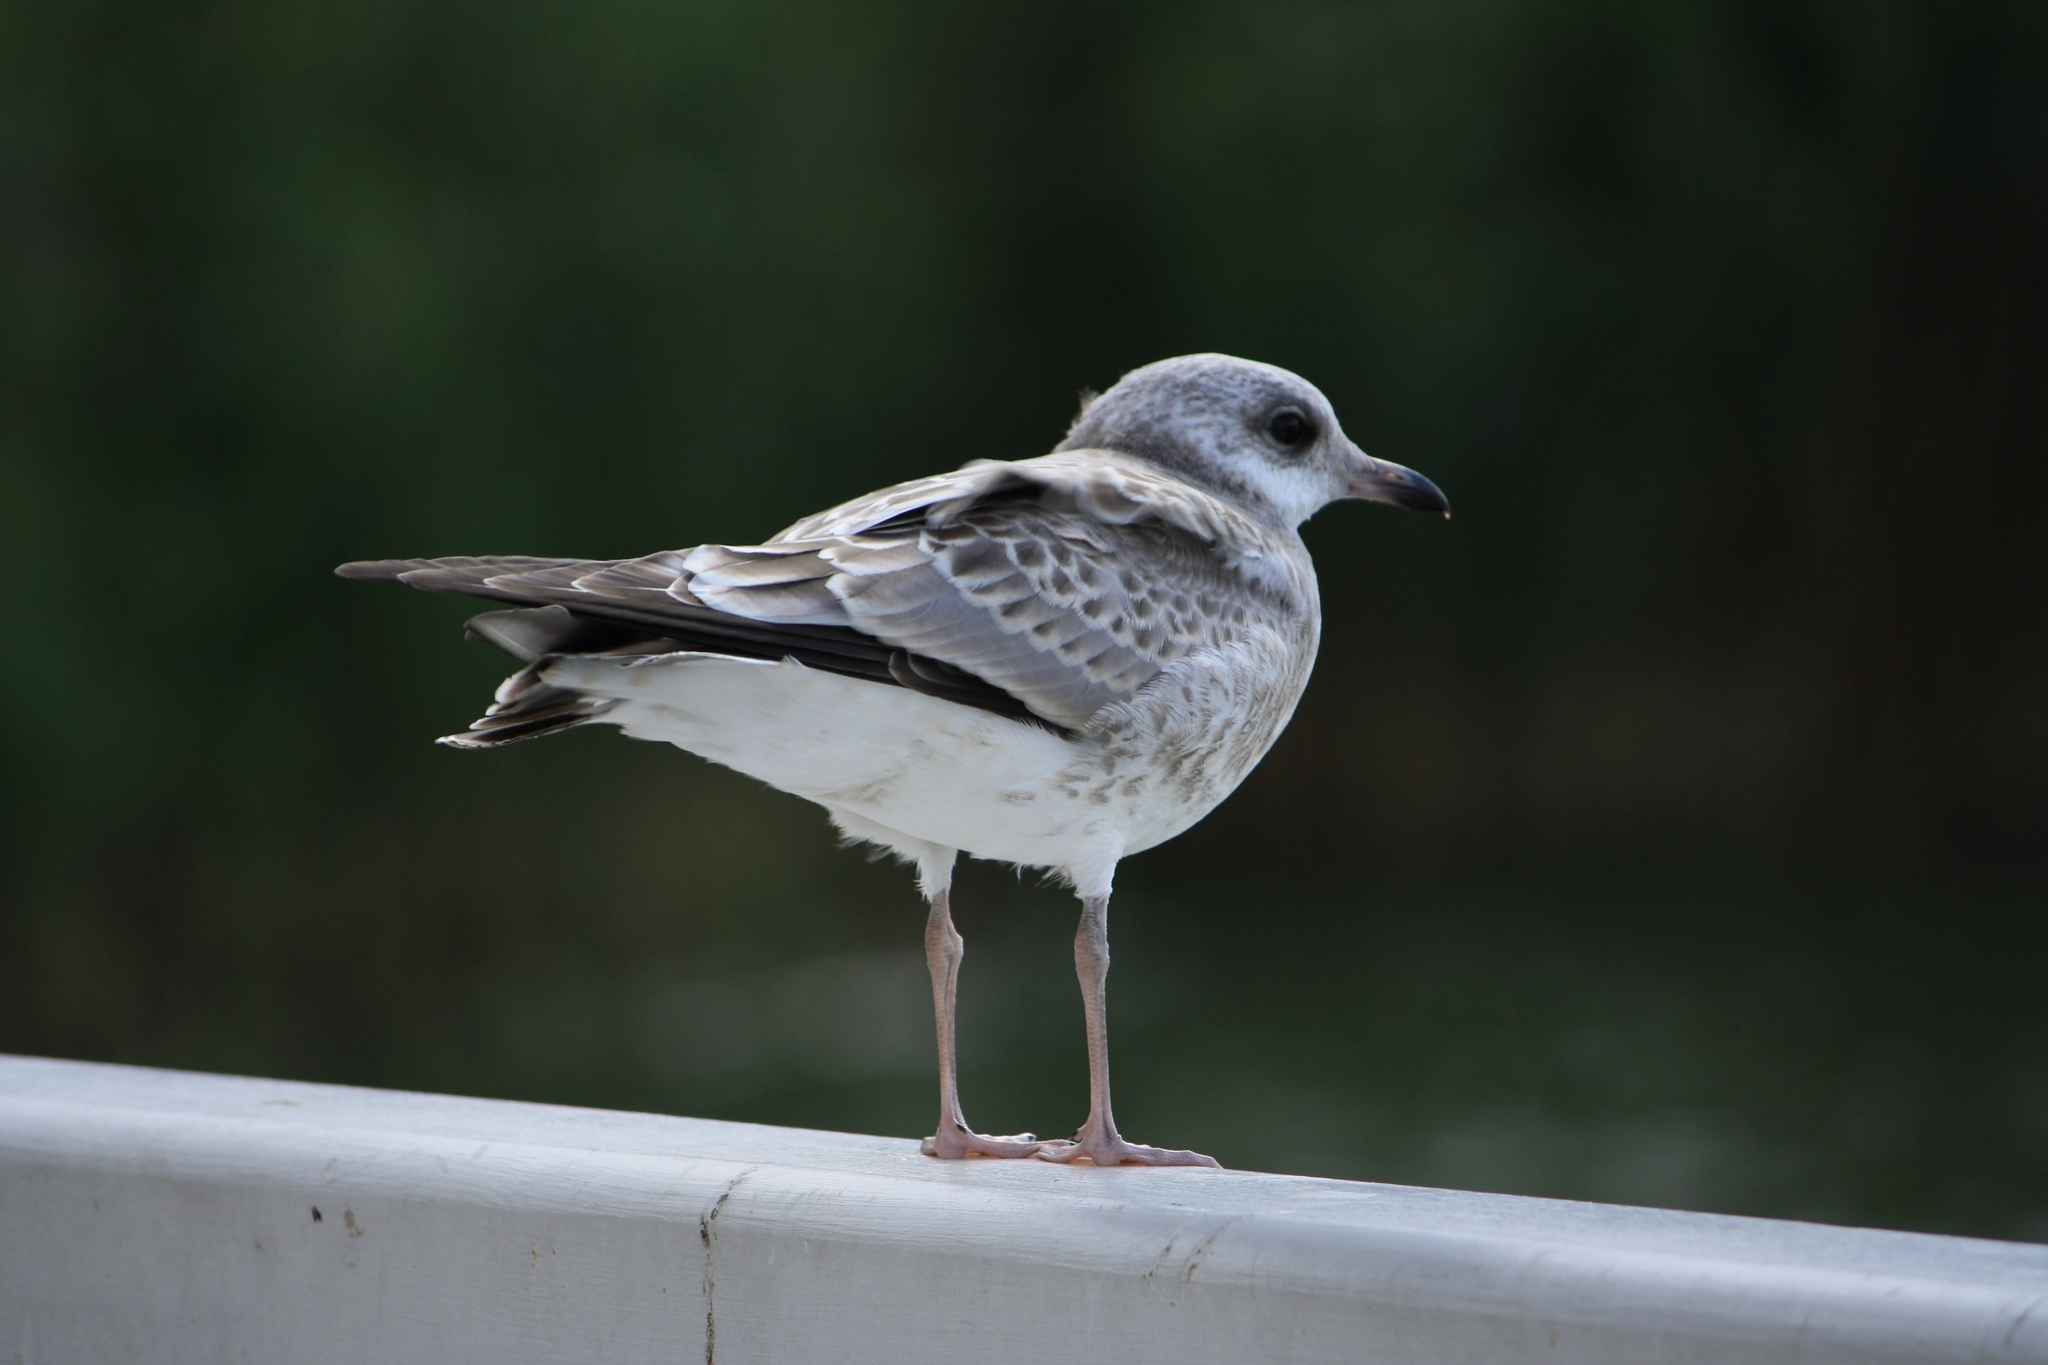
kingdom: Animalia
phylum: Chordata
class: Aves
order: Charadriiformes
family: Laridae
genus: Larus
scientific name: Larus canus
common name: Mew gull
